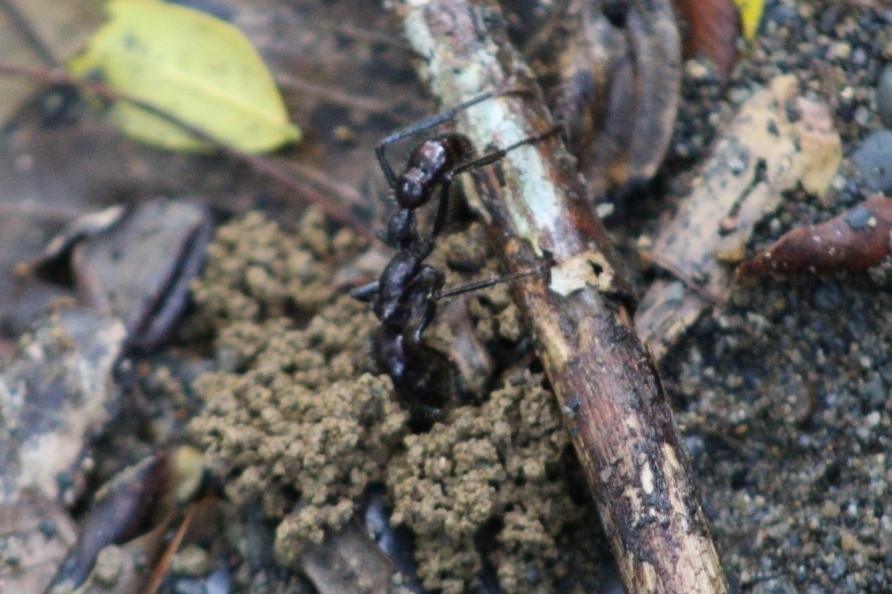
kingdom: Animalia
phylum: Arthropoda
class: Insecta
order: Hymenoptera
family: Formicidae
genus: Paraponera
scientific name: Paraponera clavata
